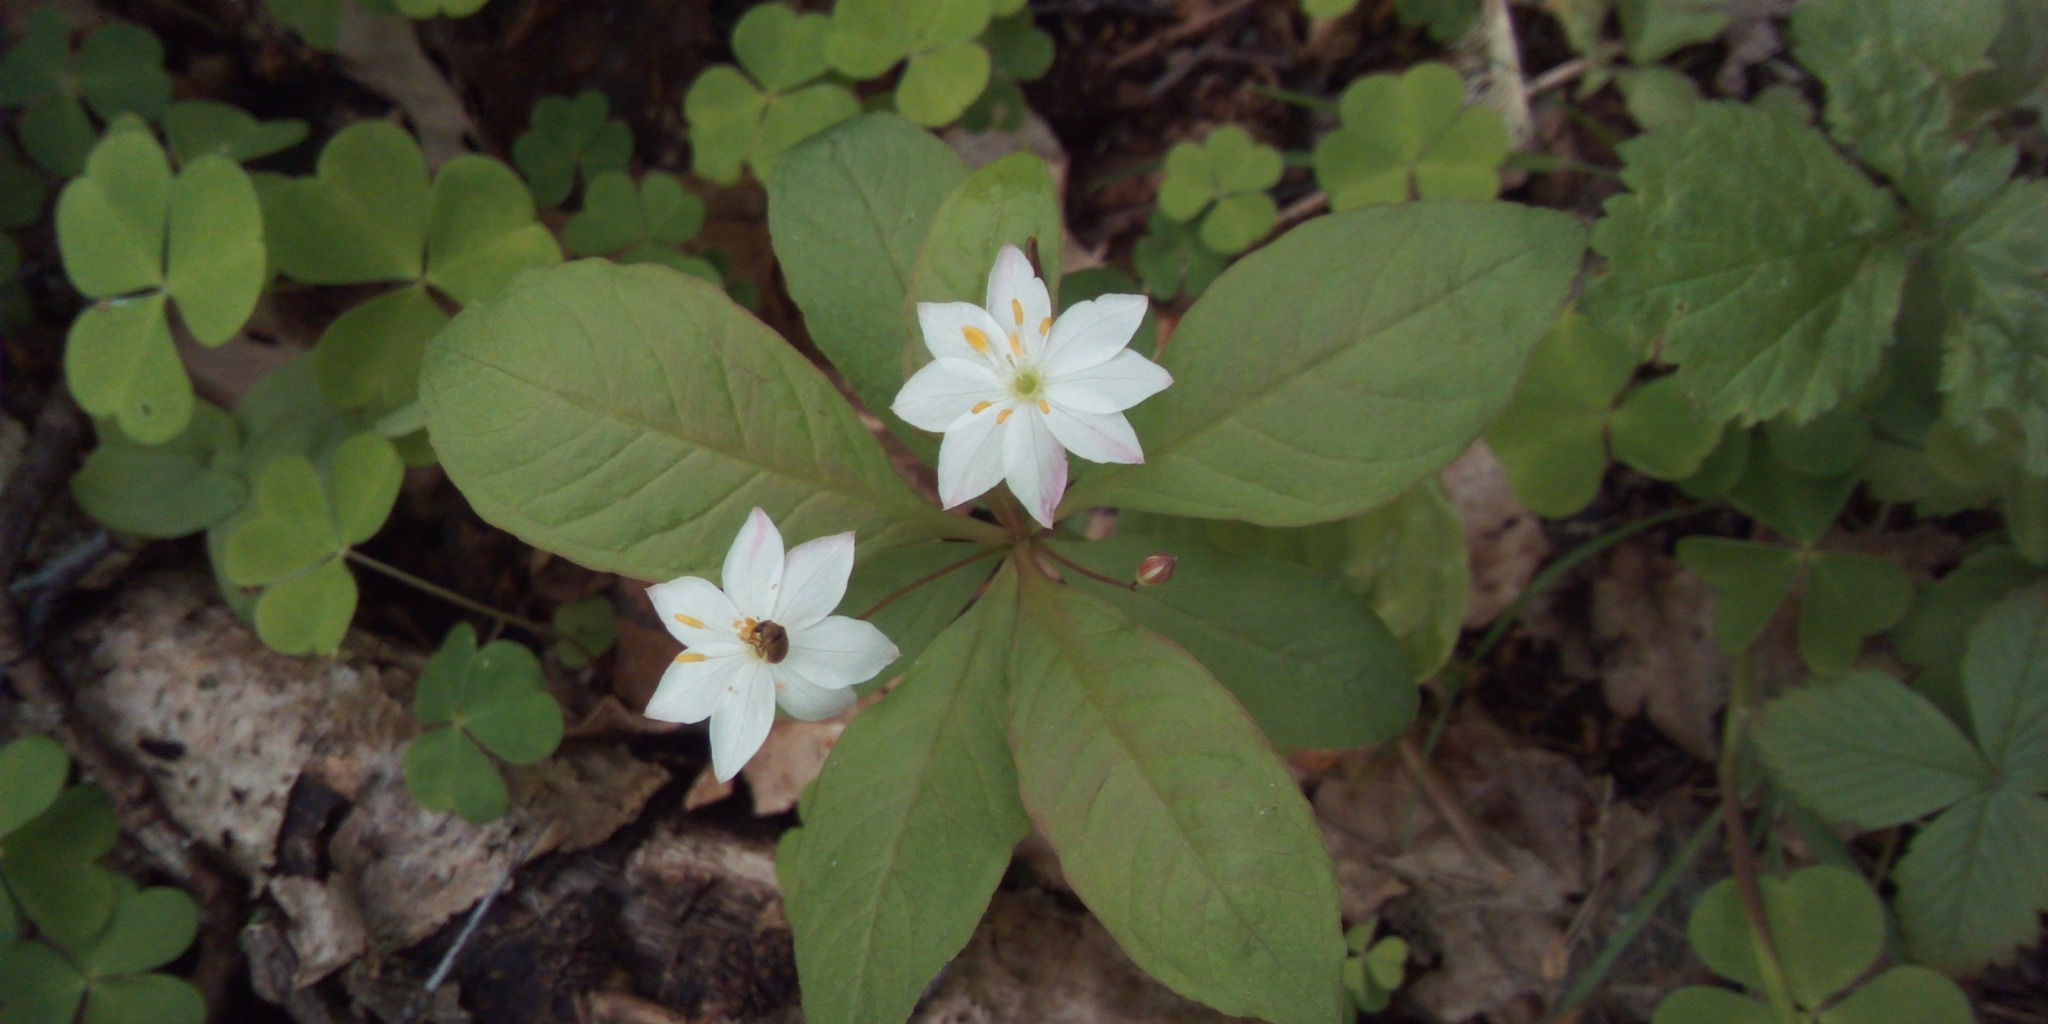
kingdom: Plantae
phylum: Tracheophyta
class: Magnoliopsida
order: Ericales
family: Primulaceae
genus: Lysimachia
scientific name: Lysimachia europaea
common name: Arctic starflower
